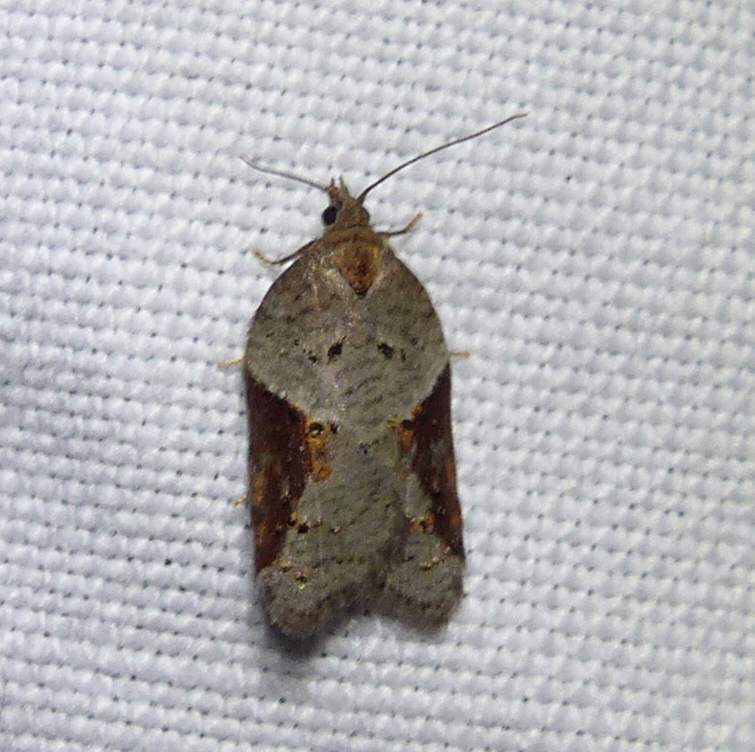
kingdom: Animalia
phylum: Arthropoda
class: Insecta
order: Lepidoptera
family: Tortricidae
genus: Acleris
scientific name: Acleris macdunnoughi
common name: Macdunnough's acleris
